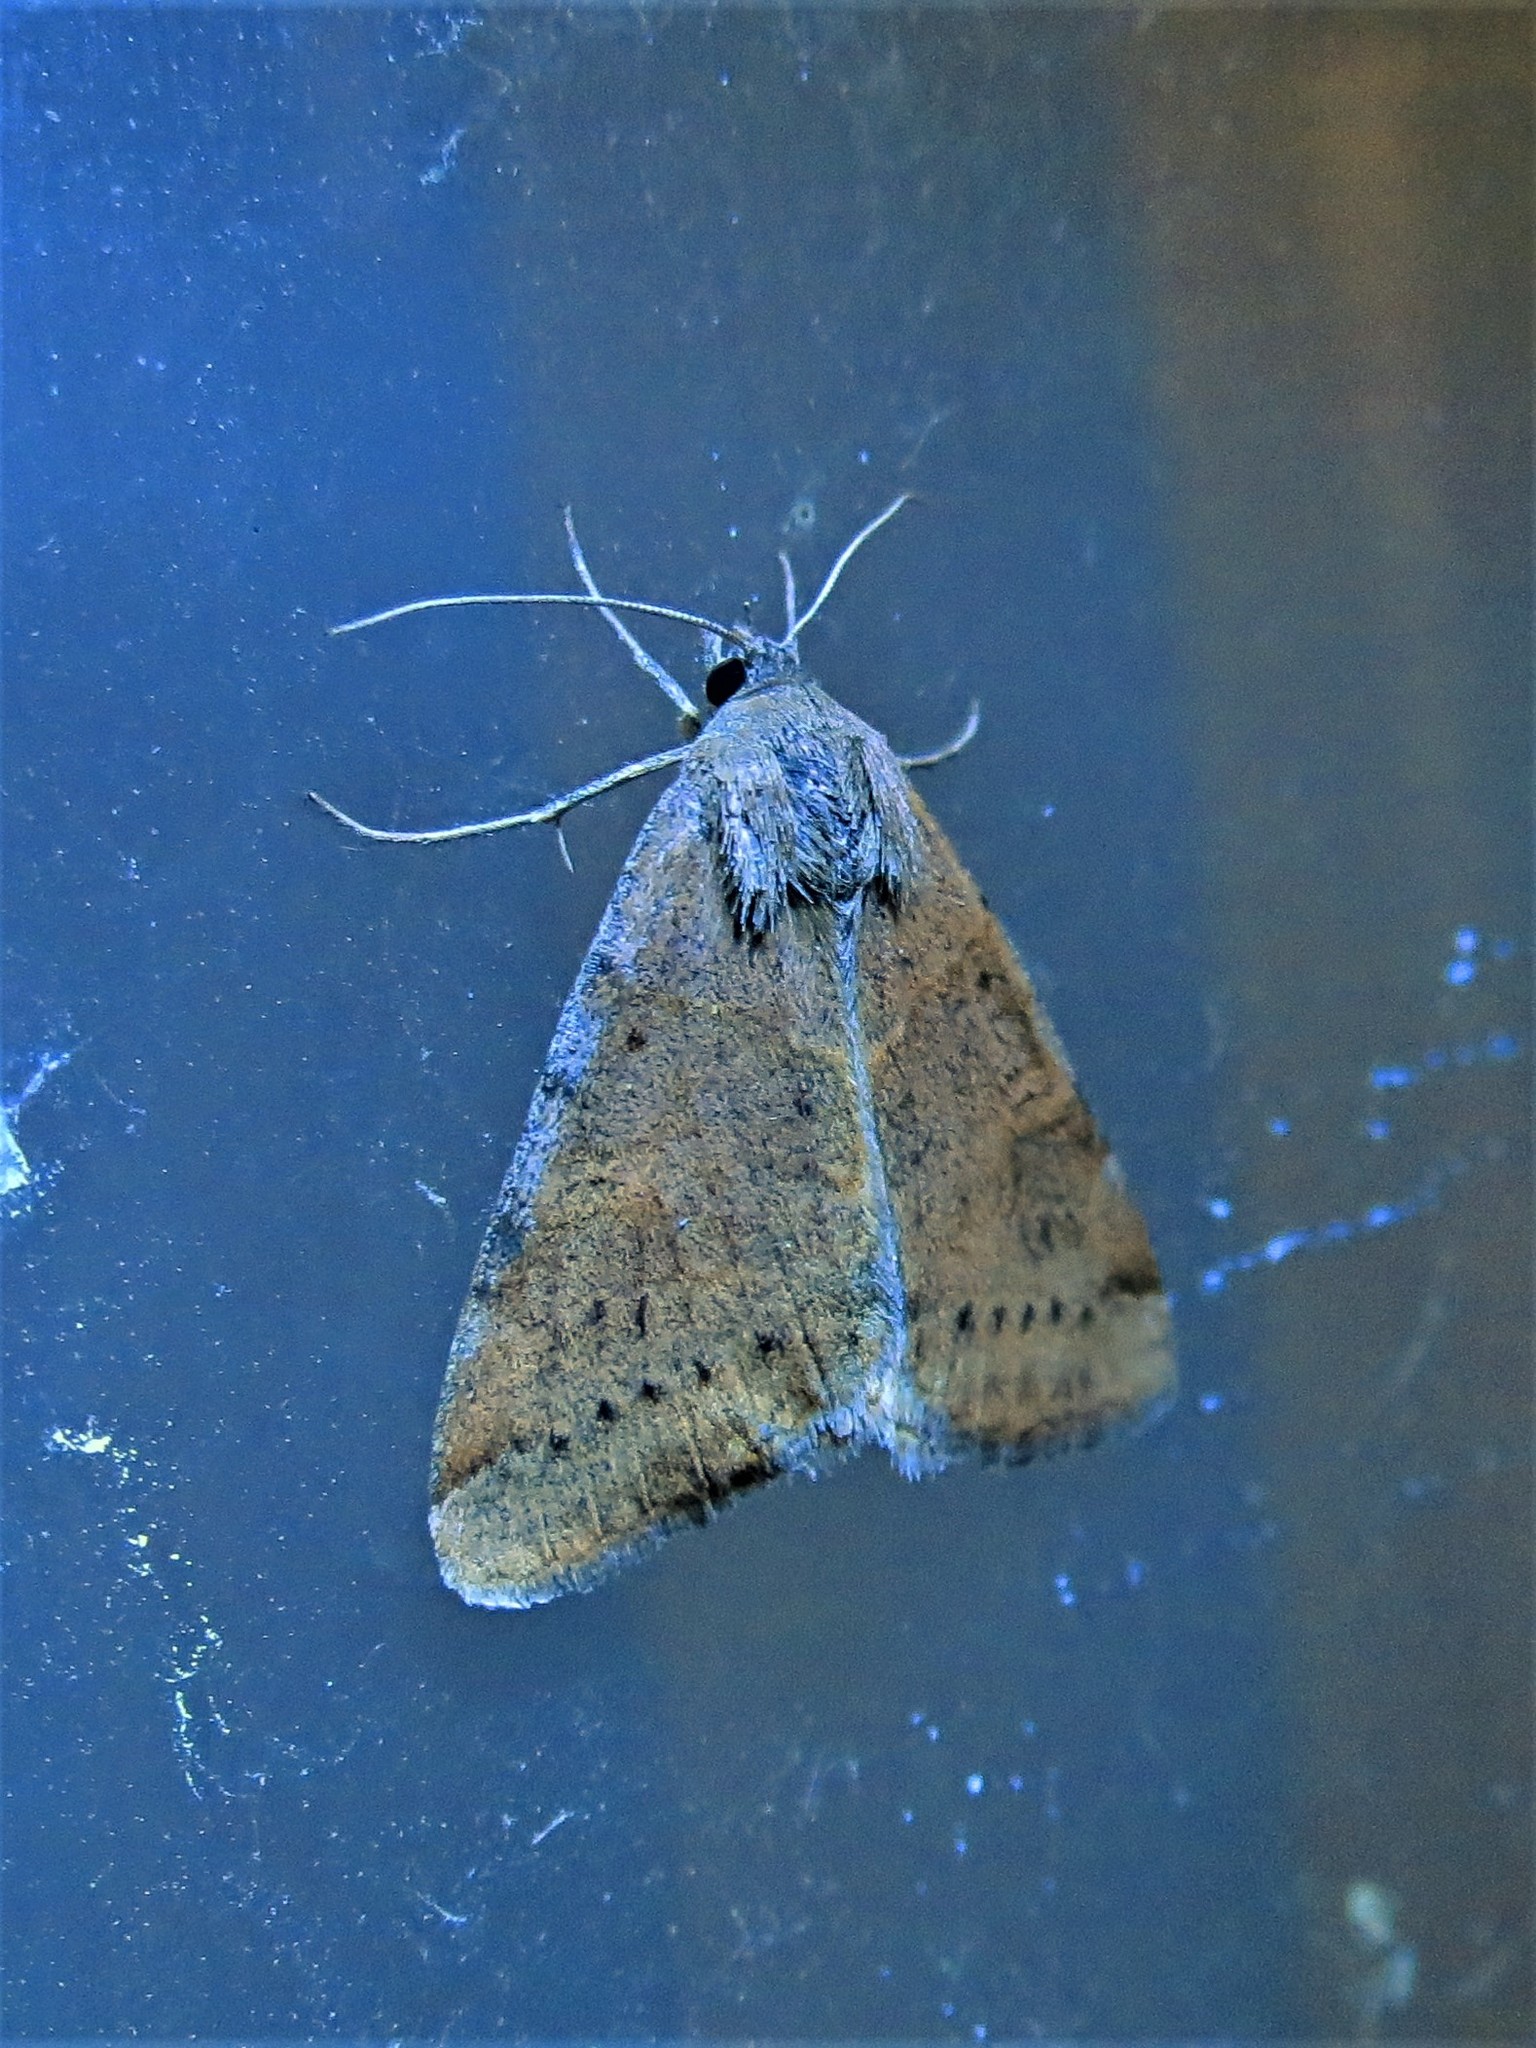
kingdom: Animalia
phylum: Arthropoda
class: Insecta
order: Lepidoptera
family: Erebidae
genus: Caenurgina
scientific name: Caenurgina erechtea
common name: Forage looper moth
